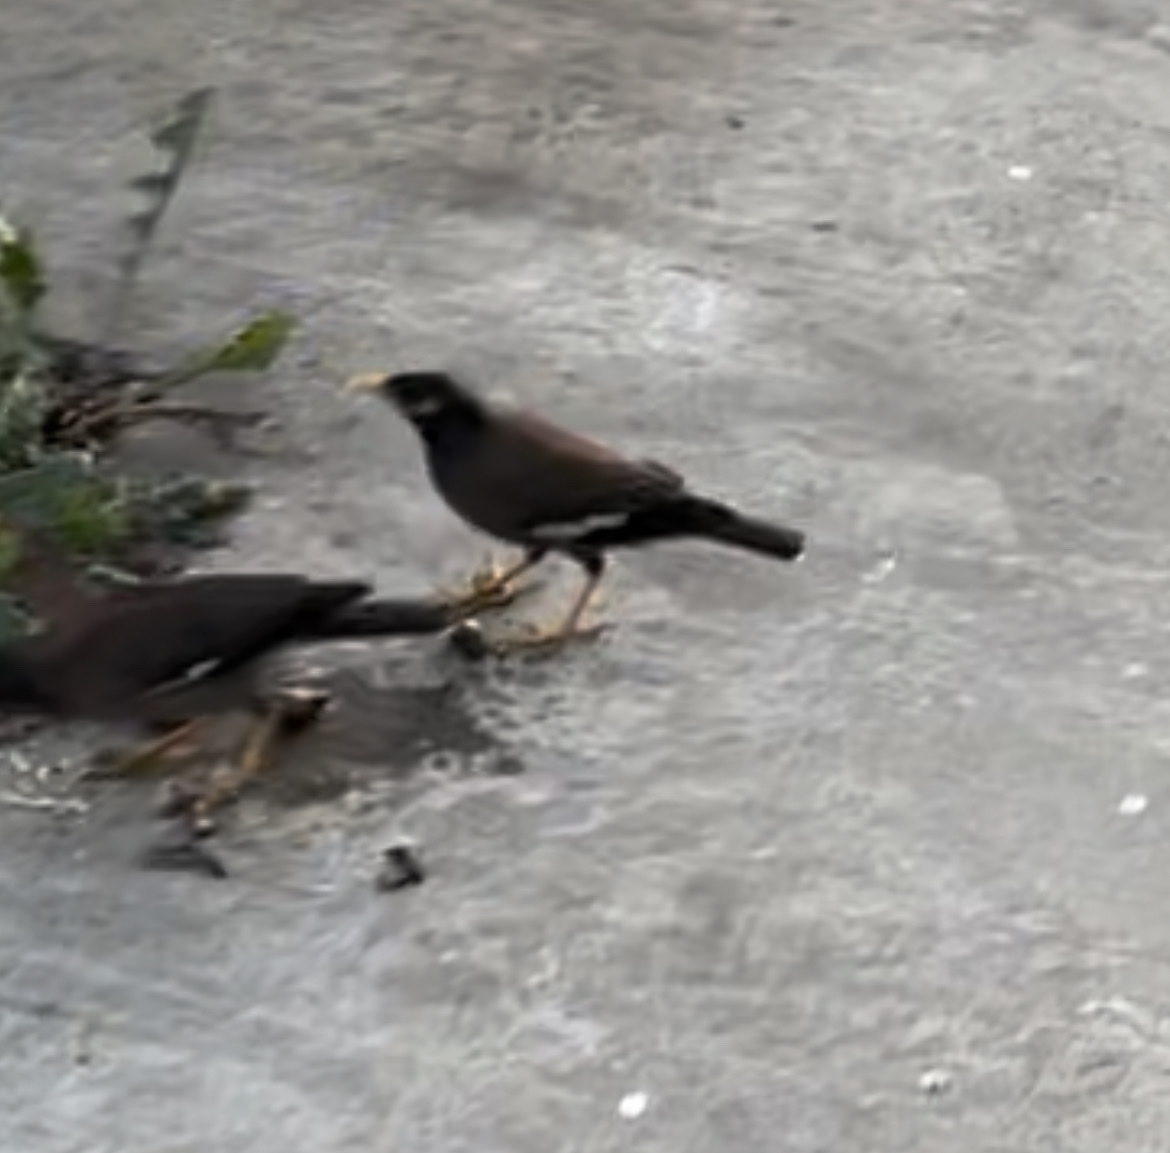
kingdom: Animalia
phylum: Chordata
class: Aves
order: Passeriformes
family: Sturnidae
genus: Acridotheres
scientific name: Acridotheres tristis
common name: Common myna
